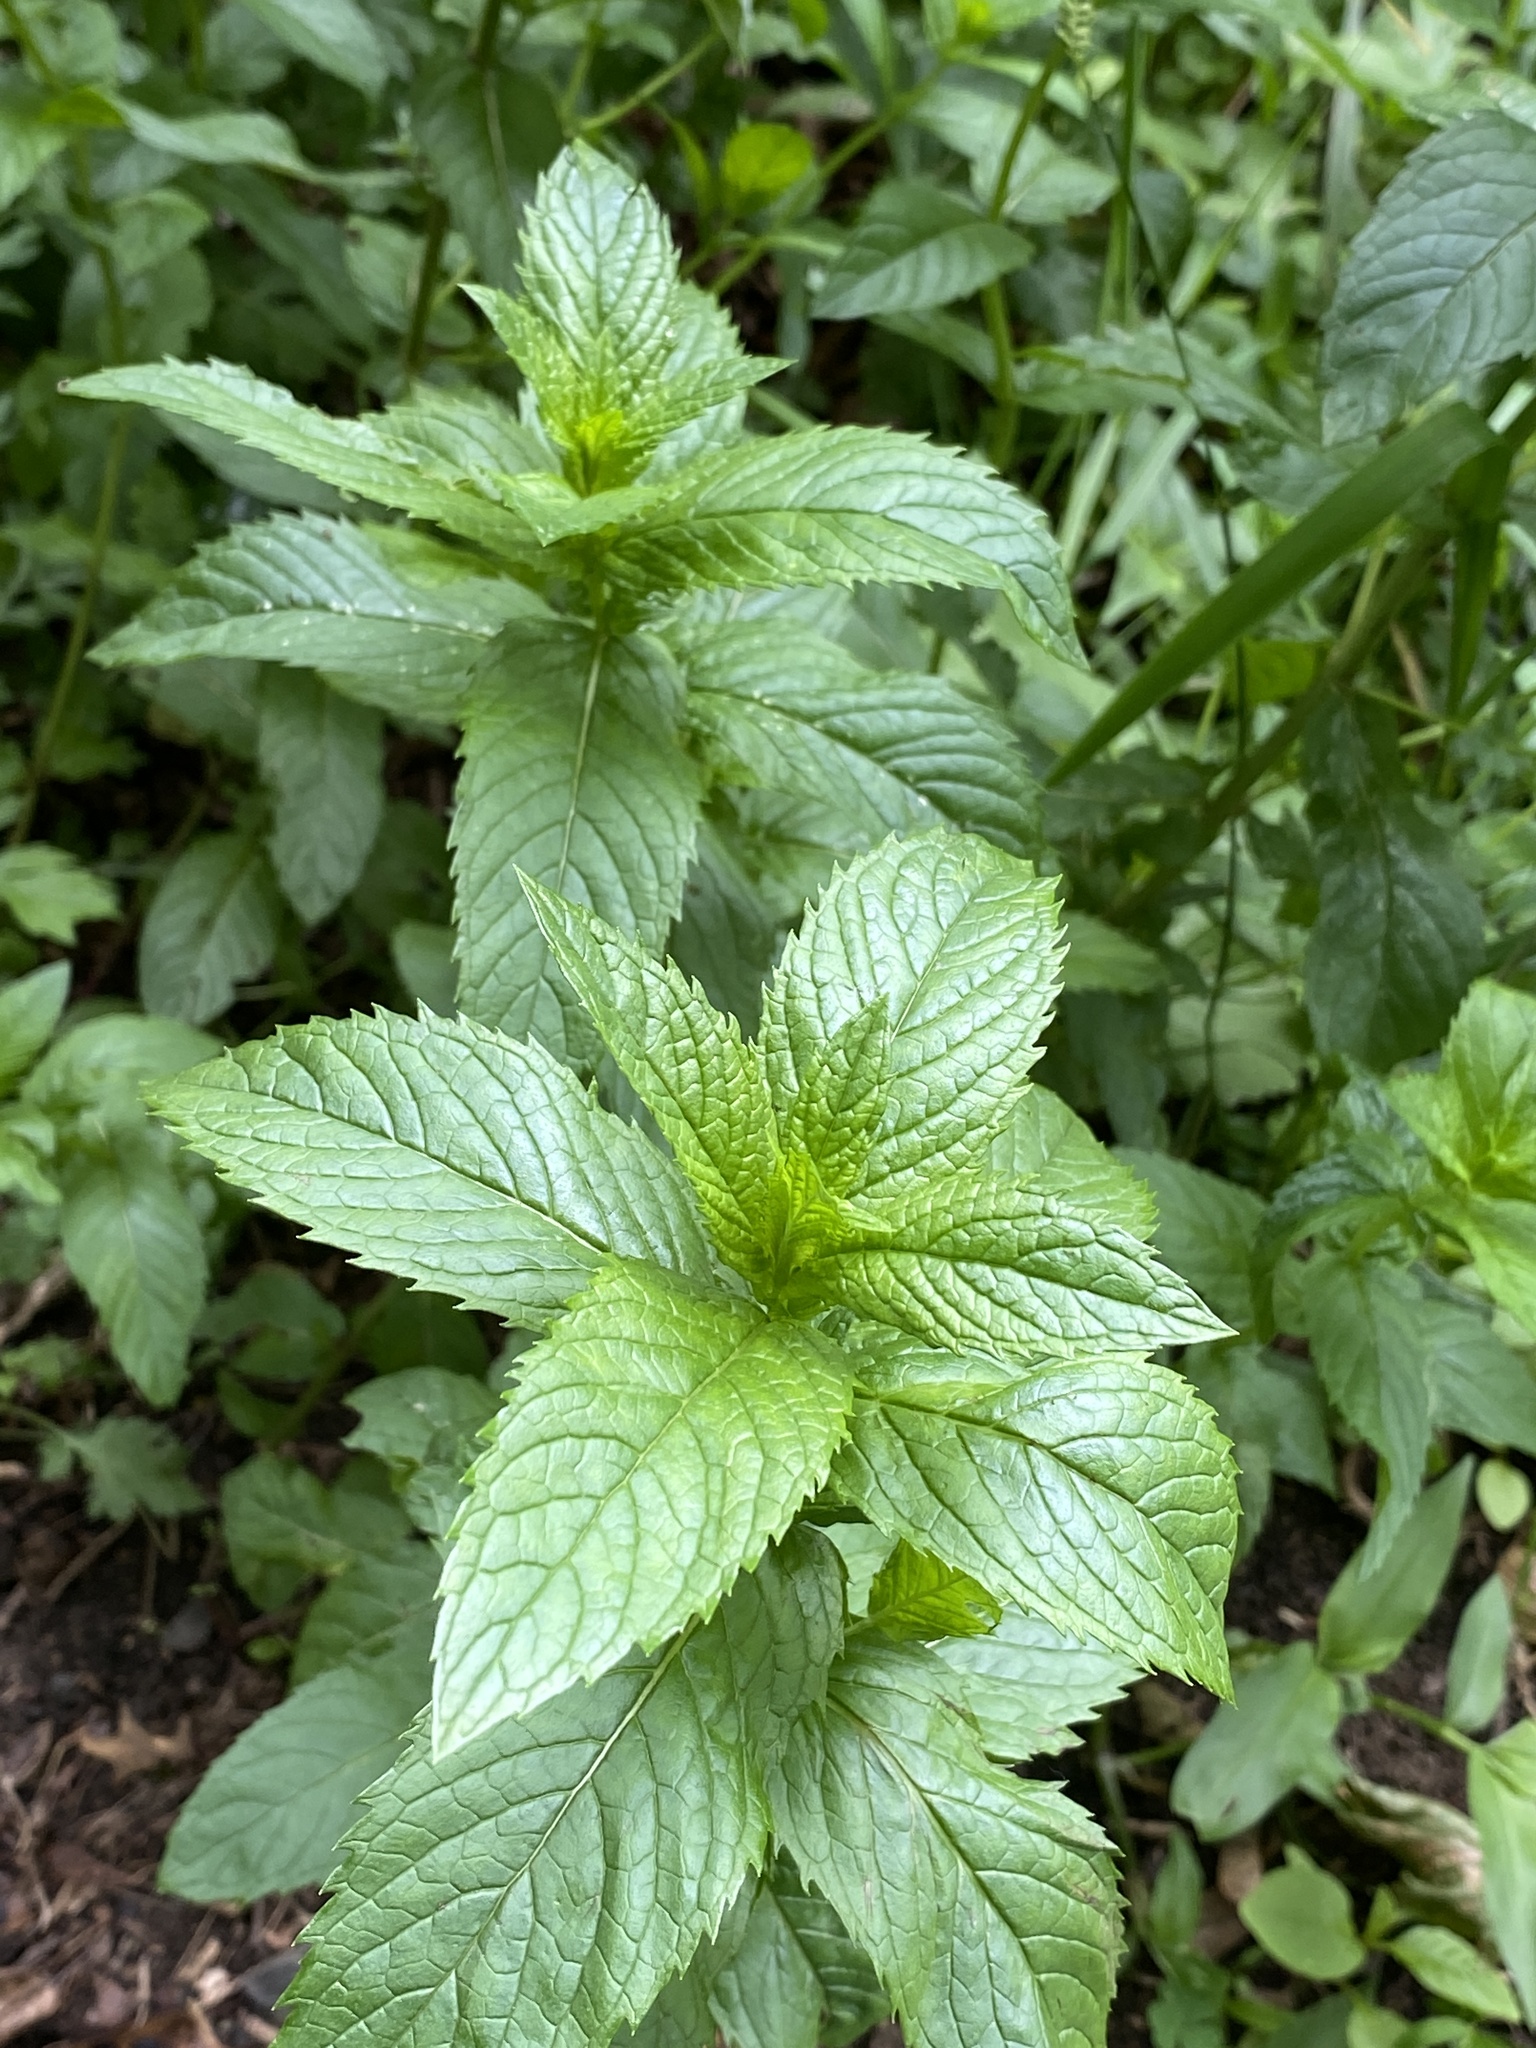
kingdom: Plantae
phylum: Tracheophyta
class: Magnoliopsida
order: Lamiales
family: Lamiaceae
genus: Mentha
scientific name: Mentha spicata
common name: Spearmint
